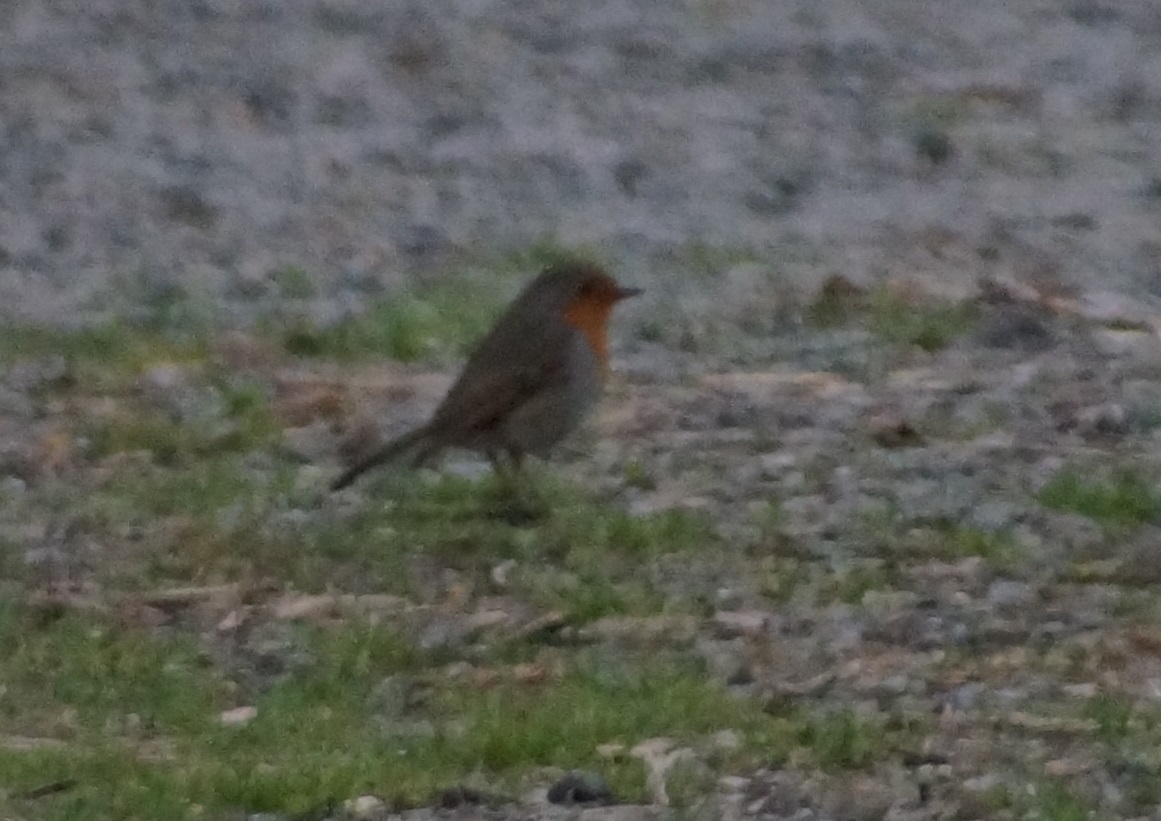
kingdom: Animalia
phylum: Chordata
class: Aves
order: Passeriformes
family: Muscicapidae
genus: Erithacus
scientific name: Erithacus rubecula
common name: European robin
